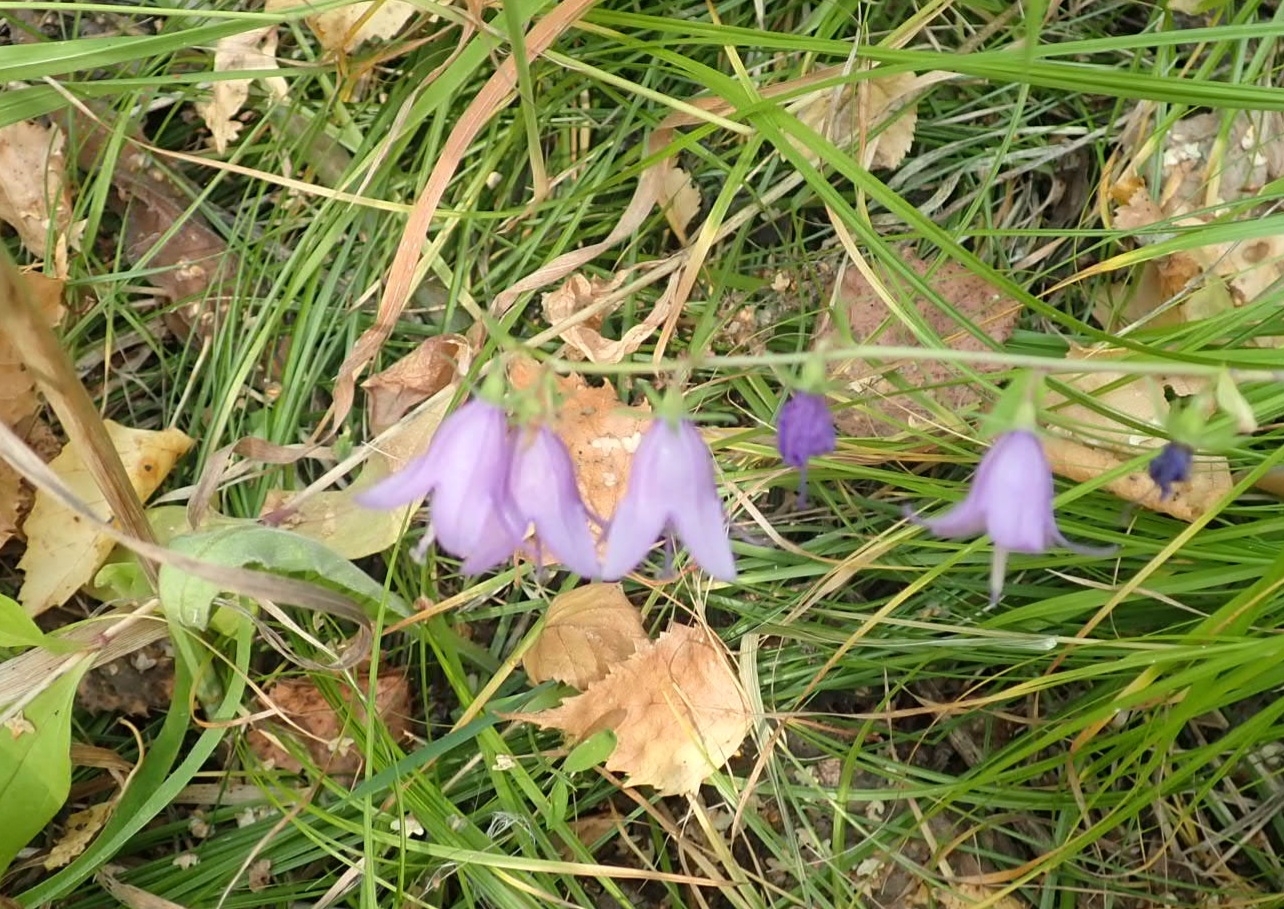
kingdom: Plantae
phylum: Tracheophyta
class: Magnoliopsida
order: Asterales
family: Campanulaceae
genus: Campanula
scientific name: Campanula rapunculoides
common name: Creeping bellflower
